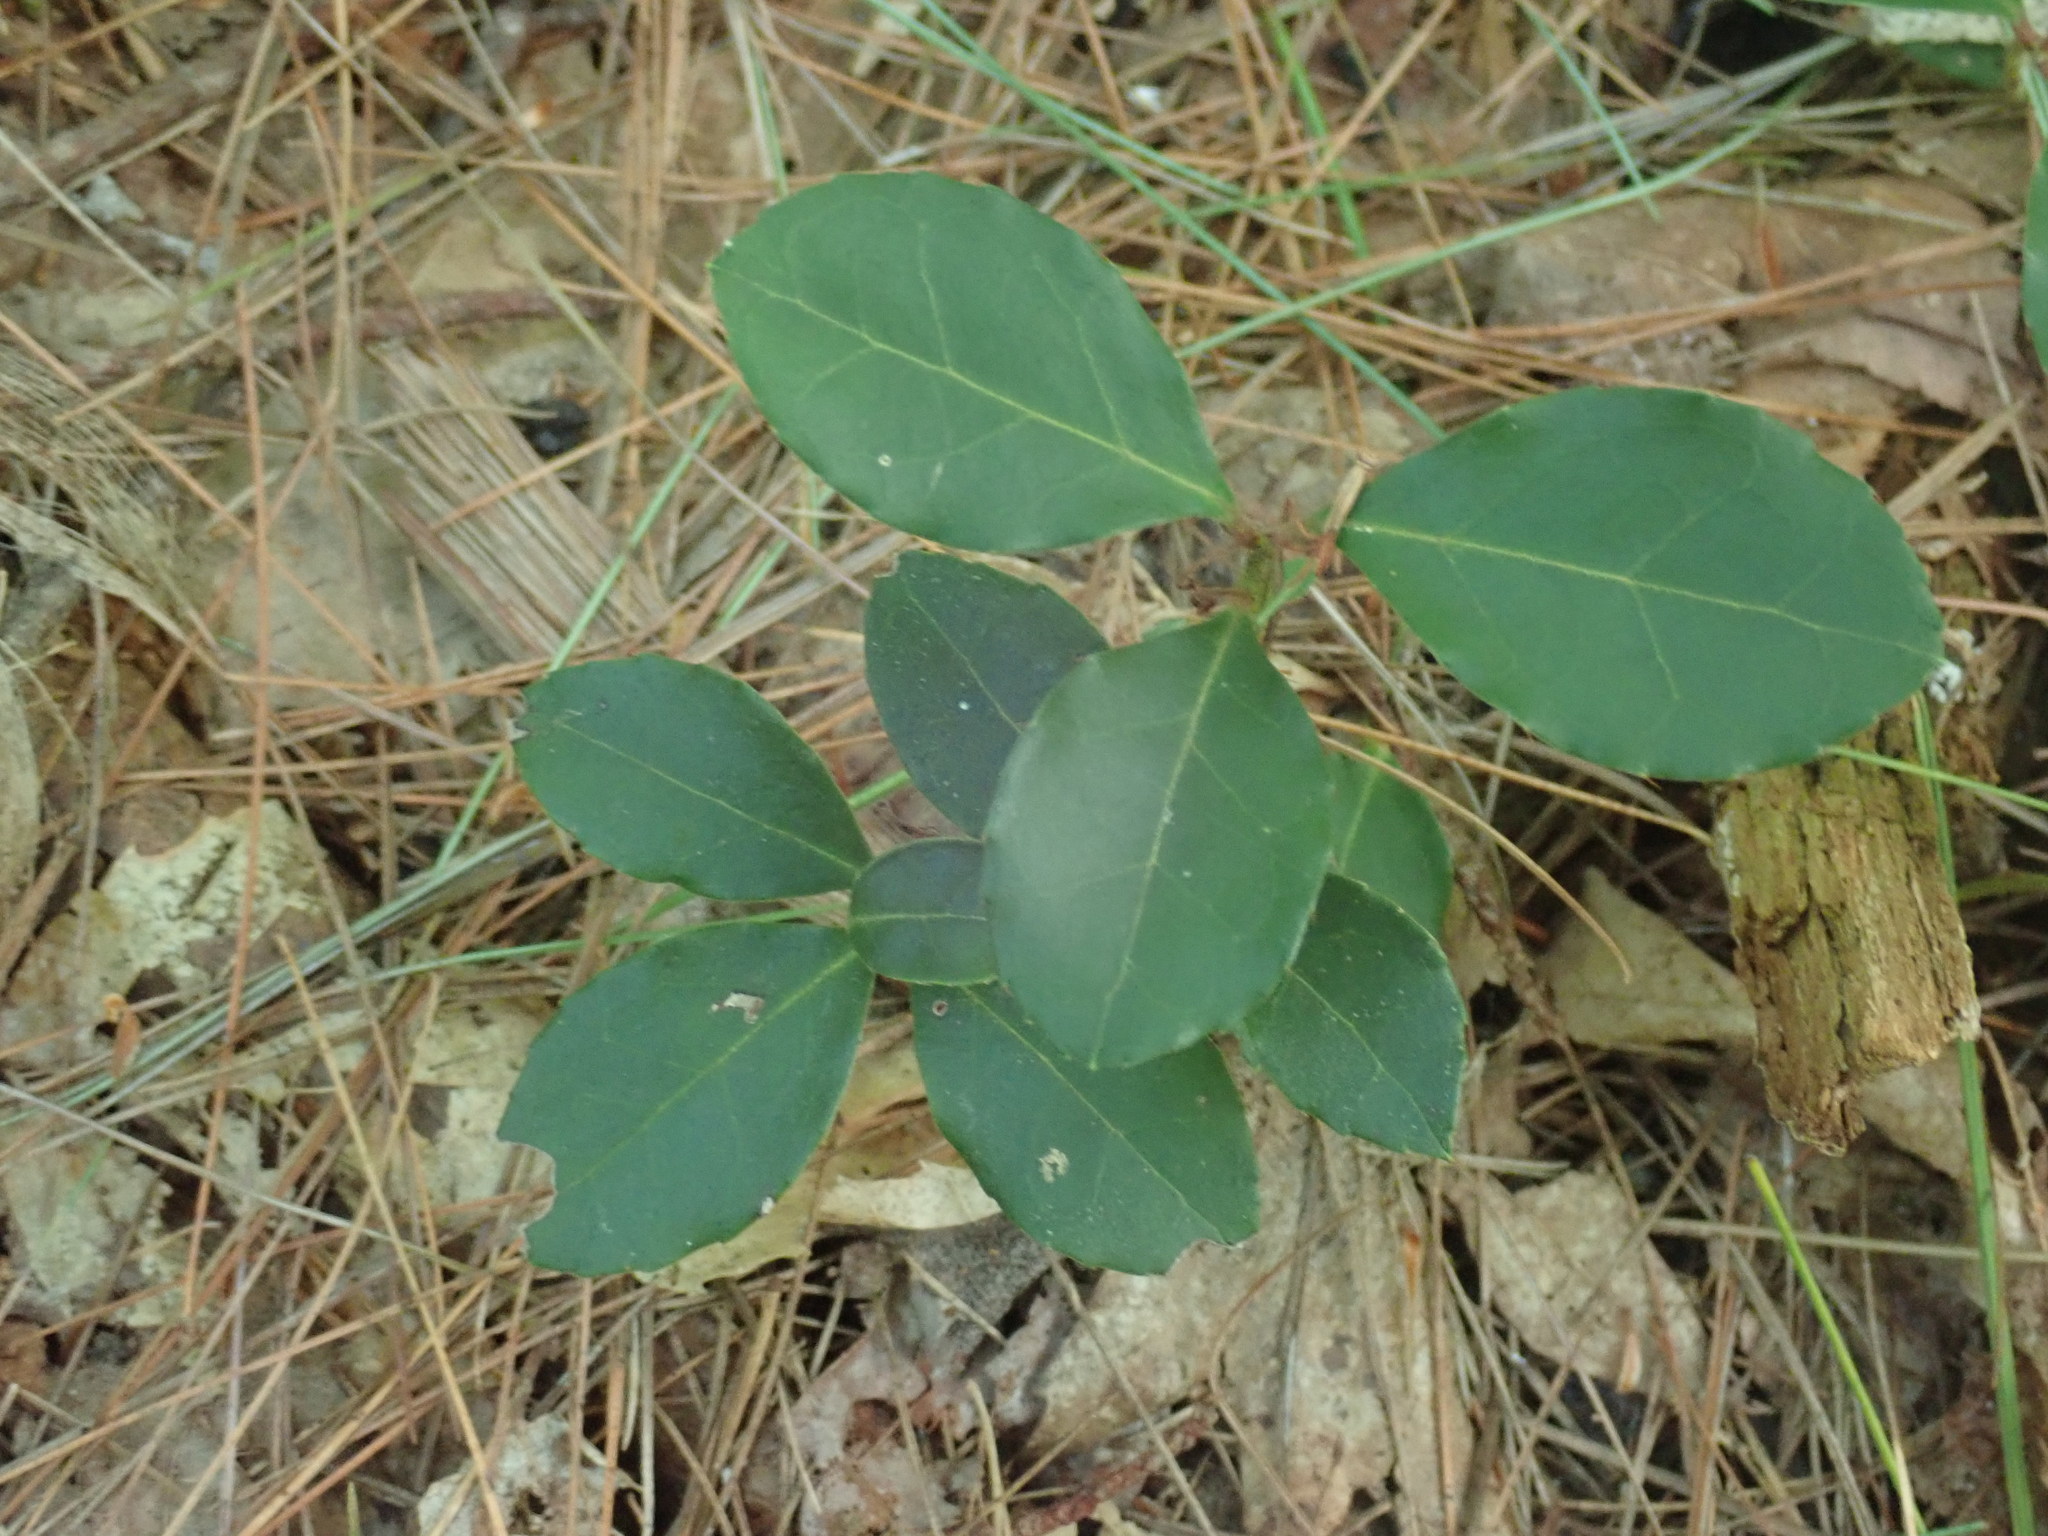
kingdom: Plantae
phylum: Tracheophyta
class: Magnoliopsida
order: Ericales
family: Ericaceae
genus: Gaultheria
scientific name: Gaultheria procumbens
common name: Checkerberry
